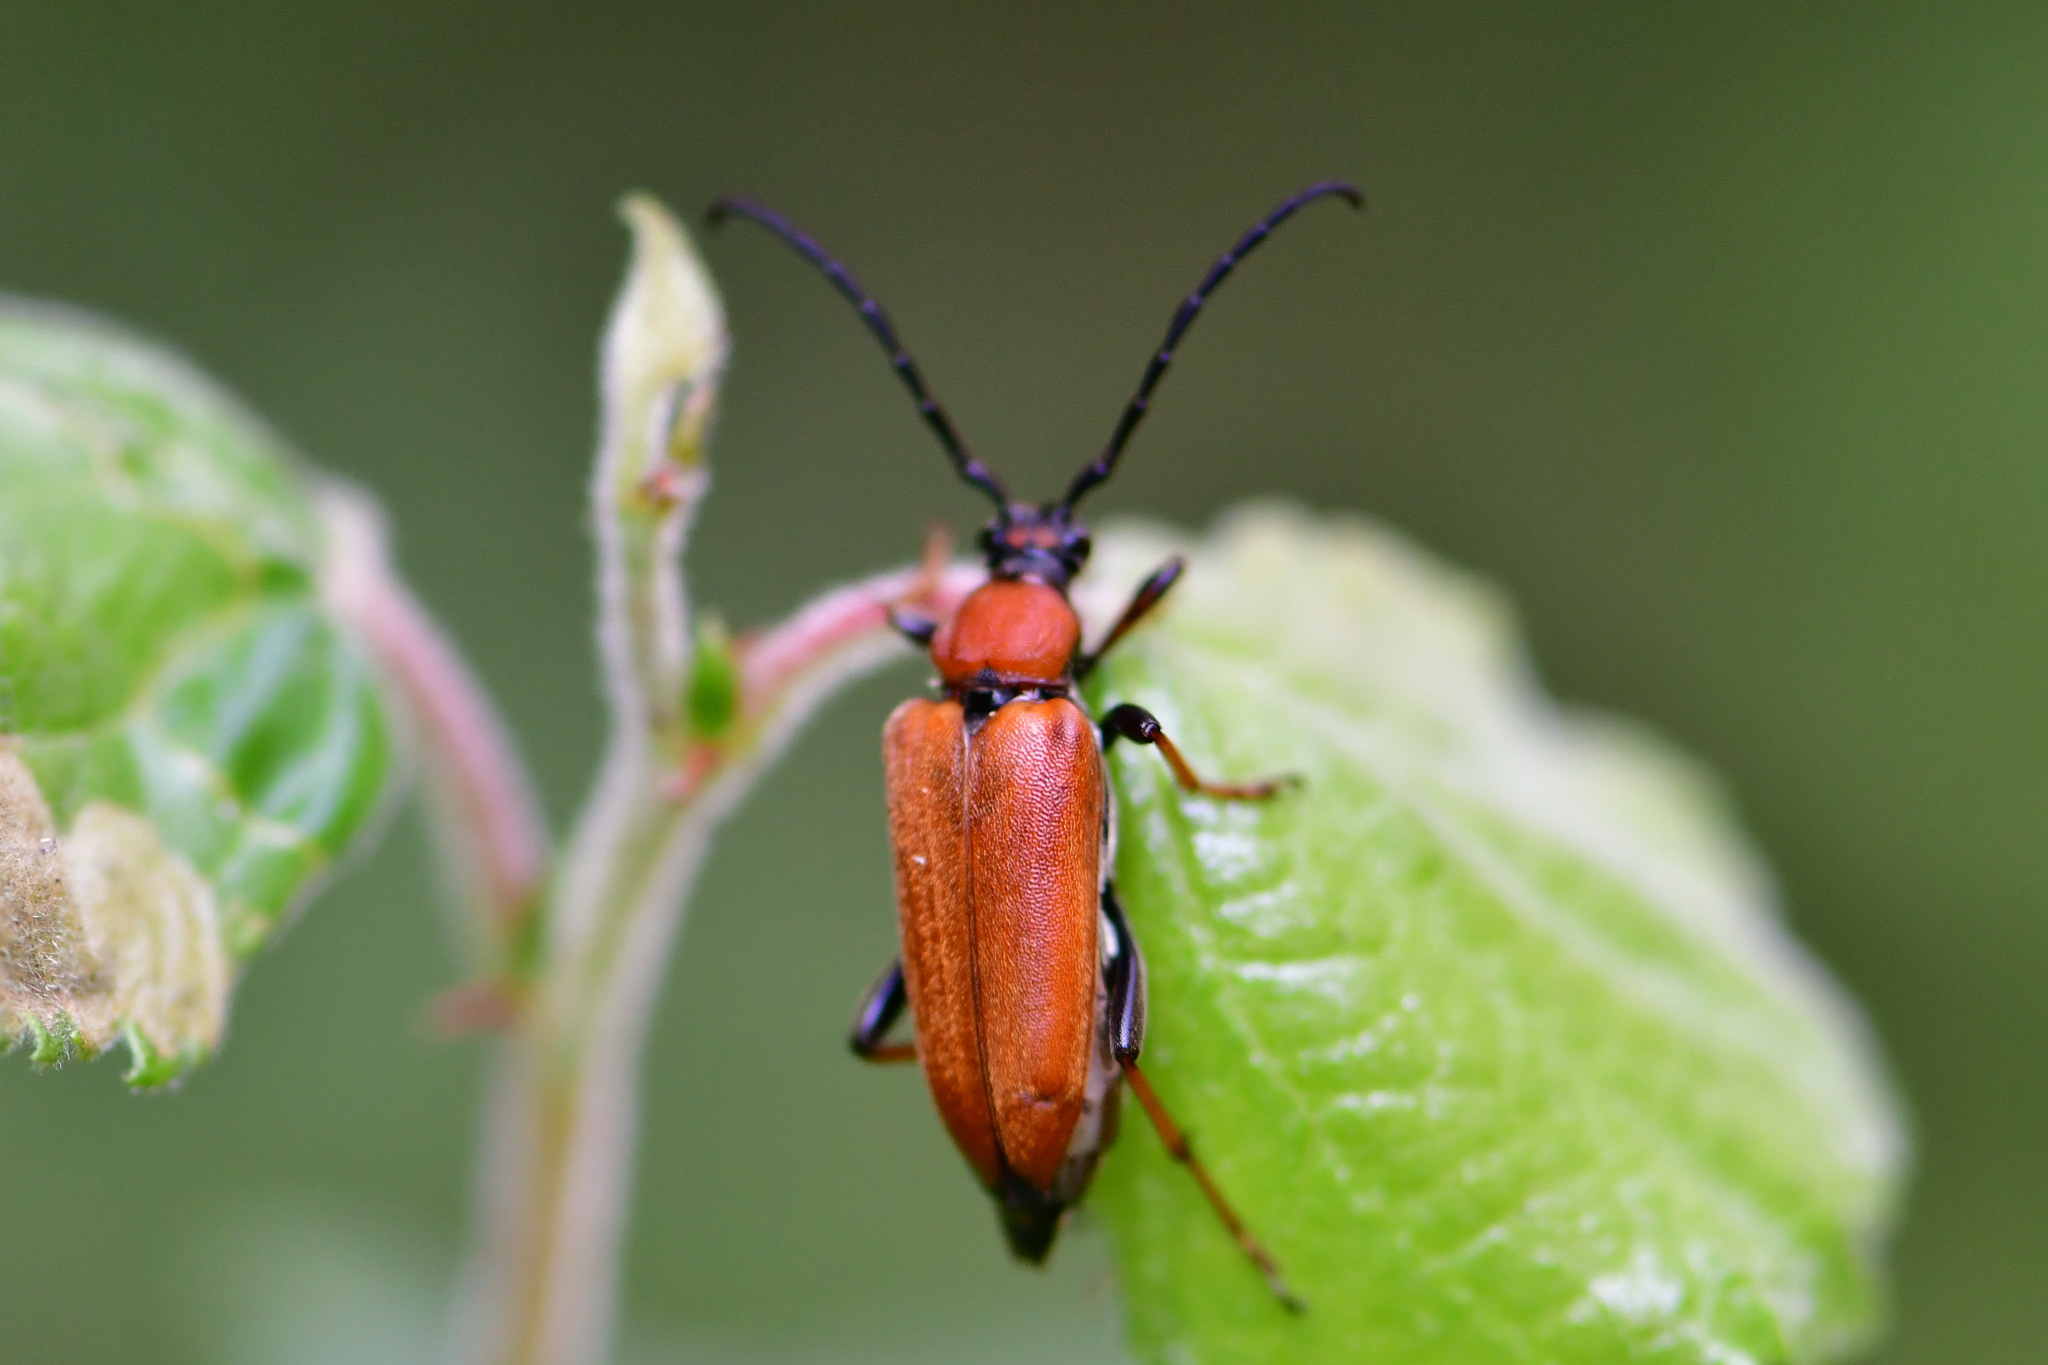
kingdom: Animalia
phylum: Arthropoda
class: Insecta
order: Coleoptera
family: Cerambycidae
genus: Stictoleptura
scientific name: Stictoleptura rubra
